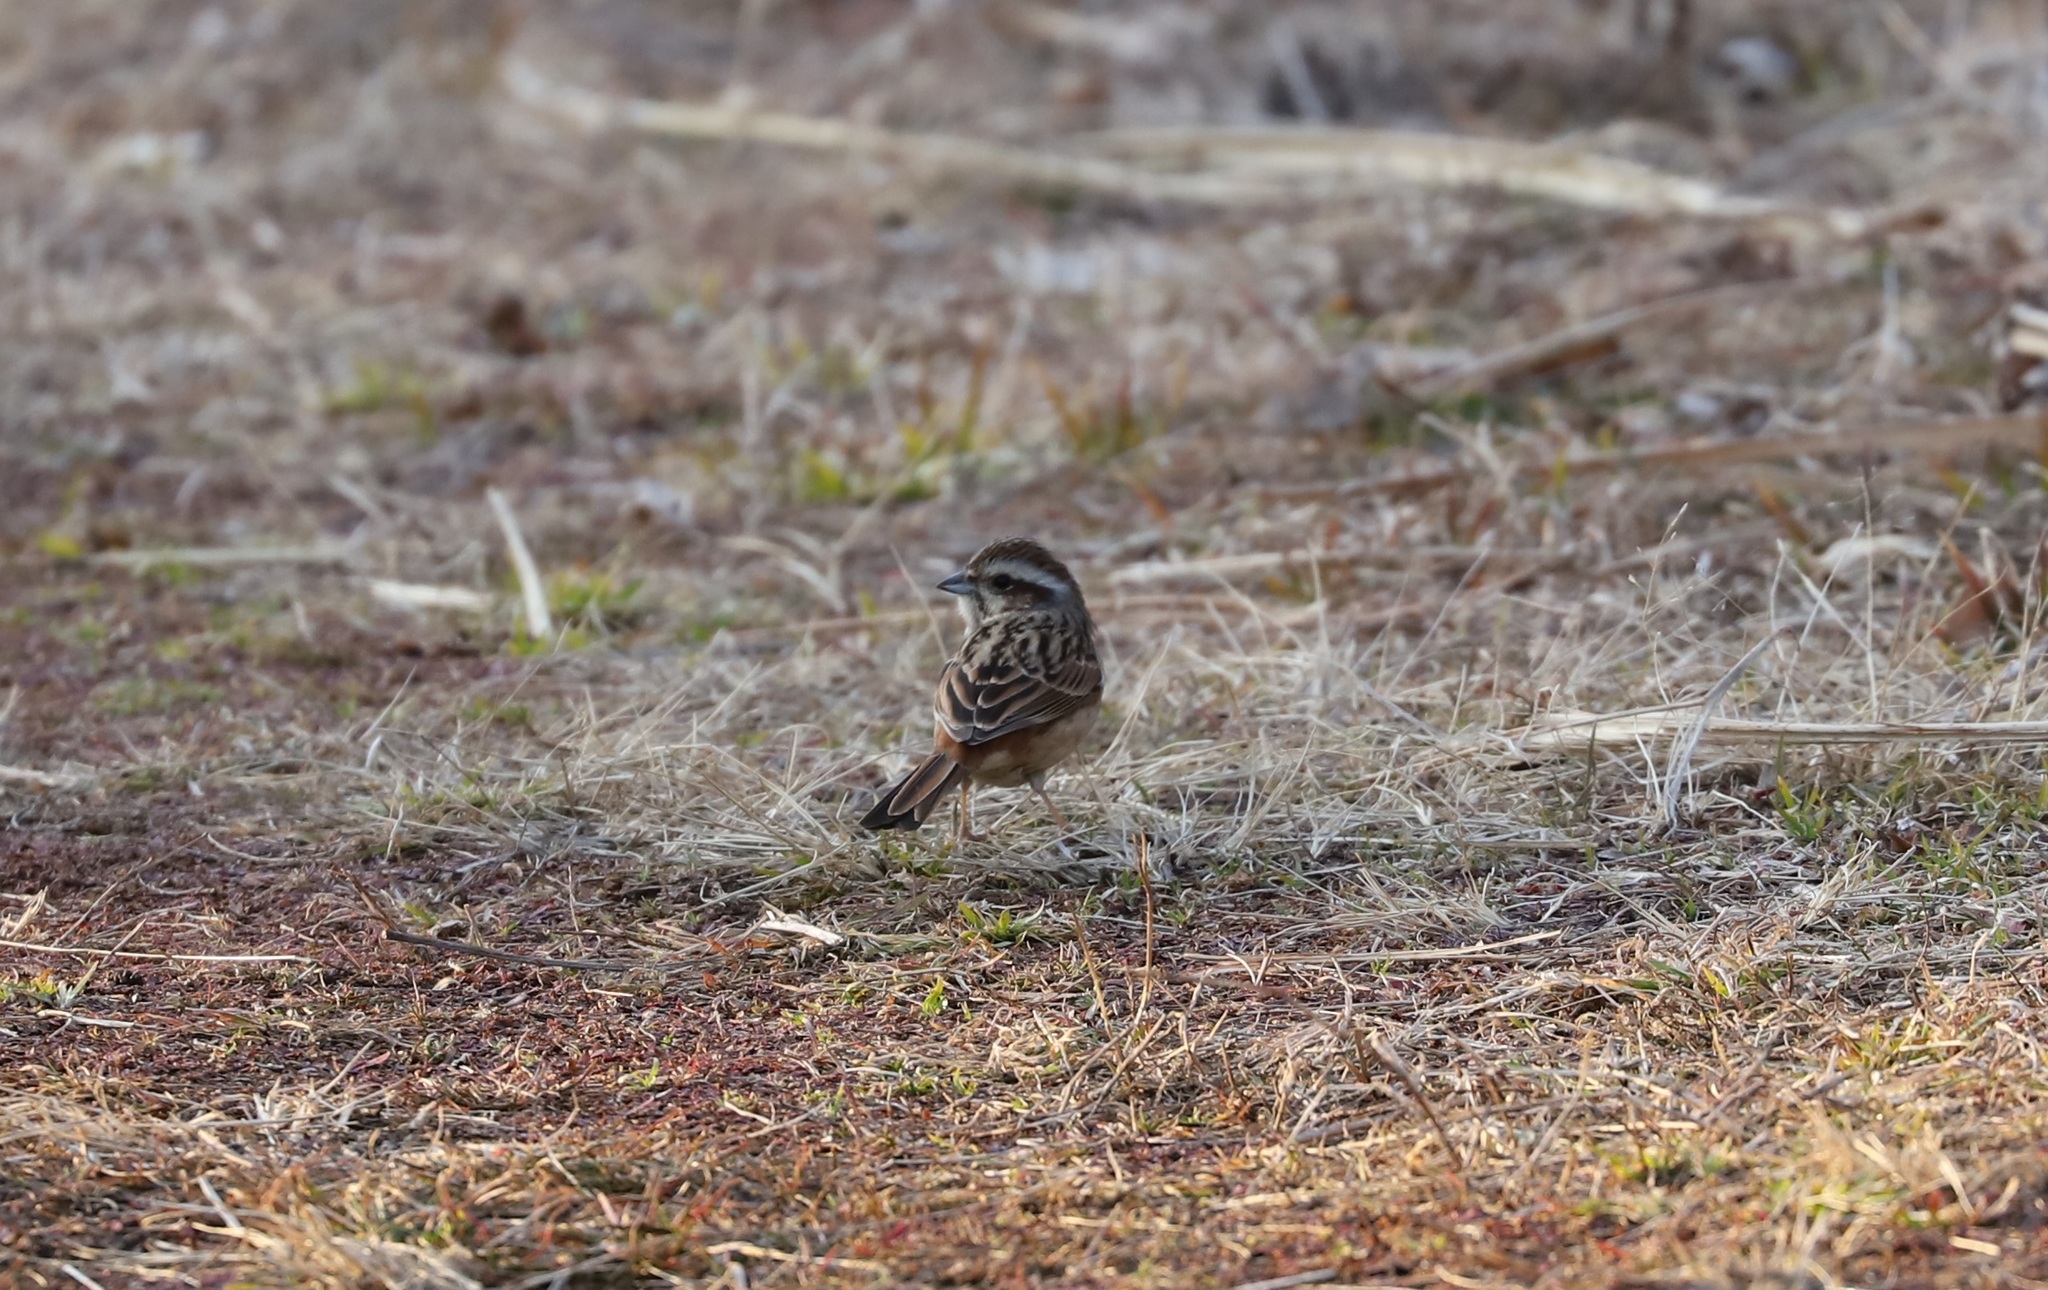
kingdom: Animalia
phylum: Chordata
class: Aves
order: Passeriformes
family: Emberizidae
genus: Emberiza
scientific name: Emberiza cioides
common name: Meadow bunting
